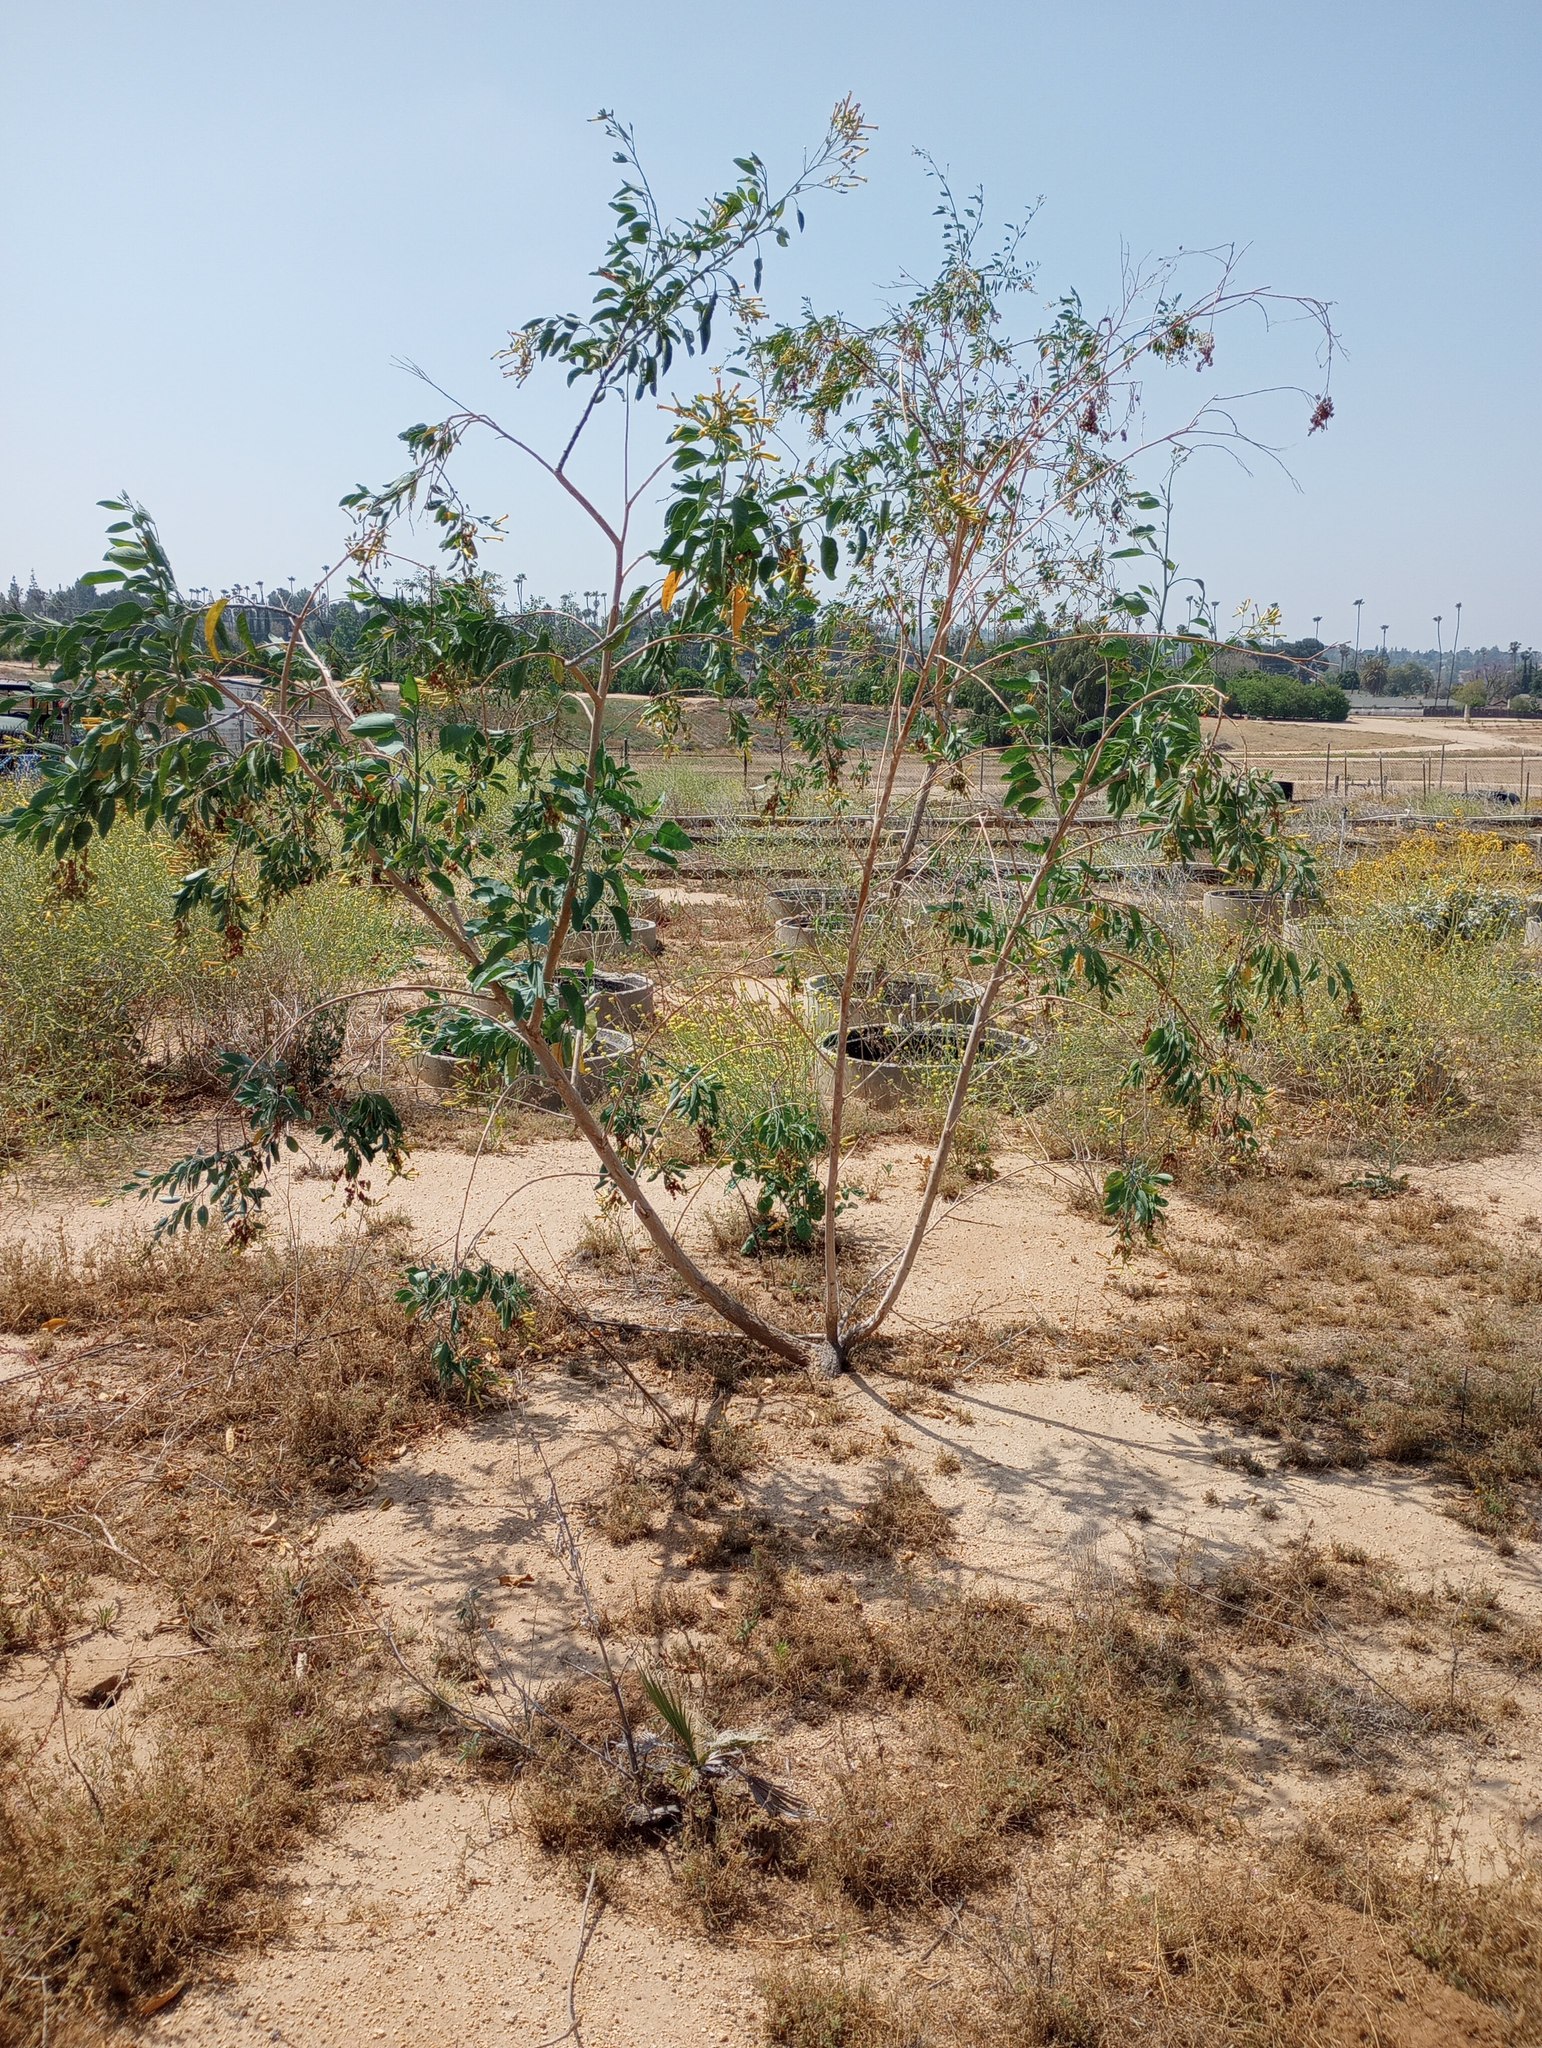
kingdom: Plantae
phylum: Tracheophyta
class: Magnoliopsida
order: Solanales
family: Solanaceae
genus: Nicotiana
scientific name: Nicotiana glauca
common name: Tree tobacco
